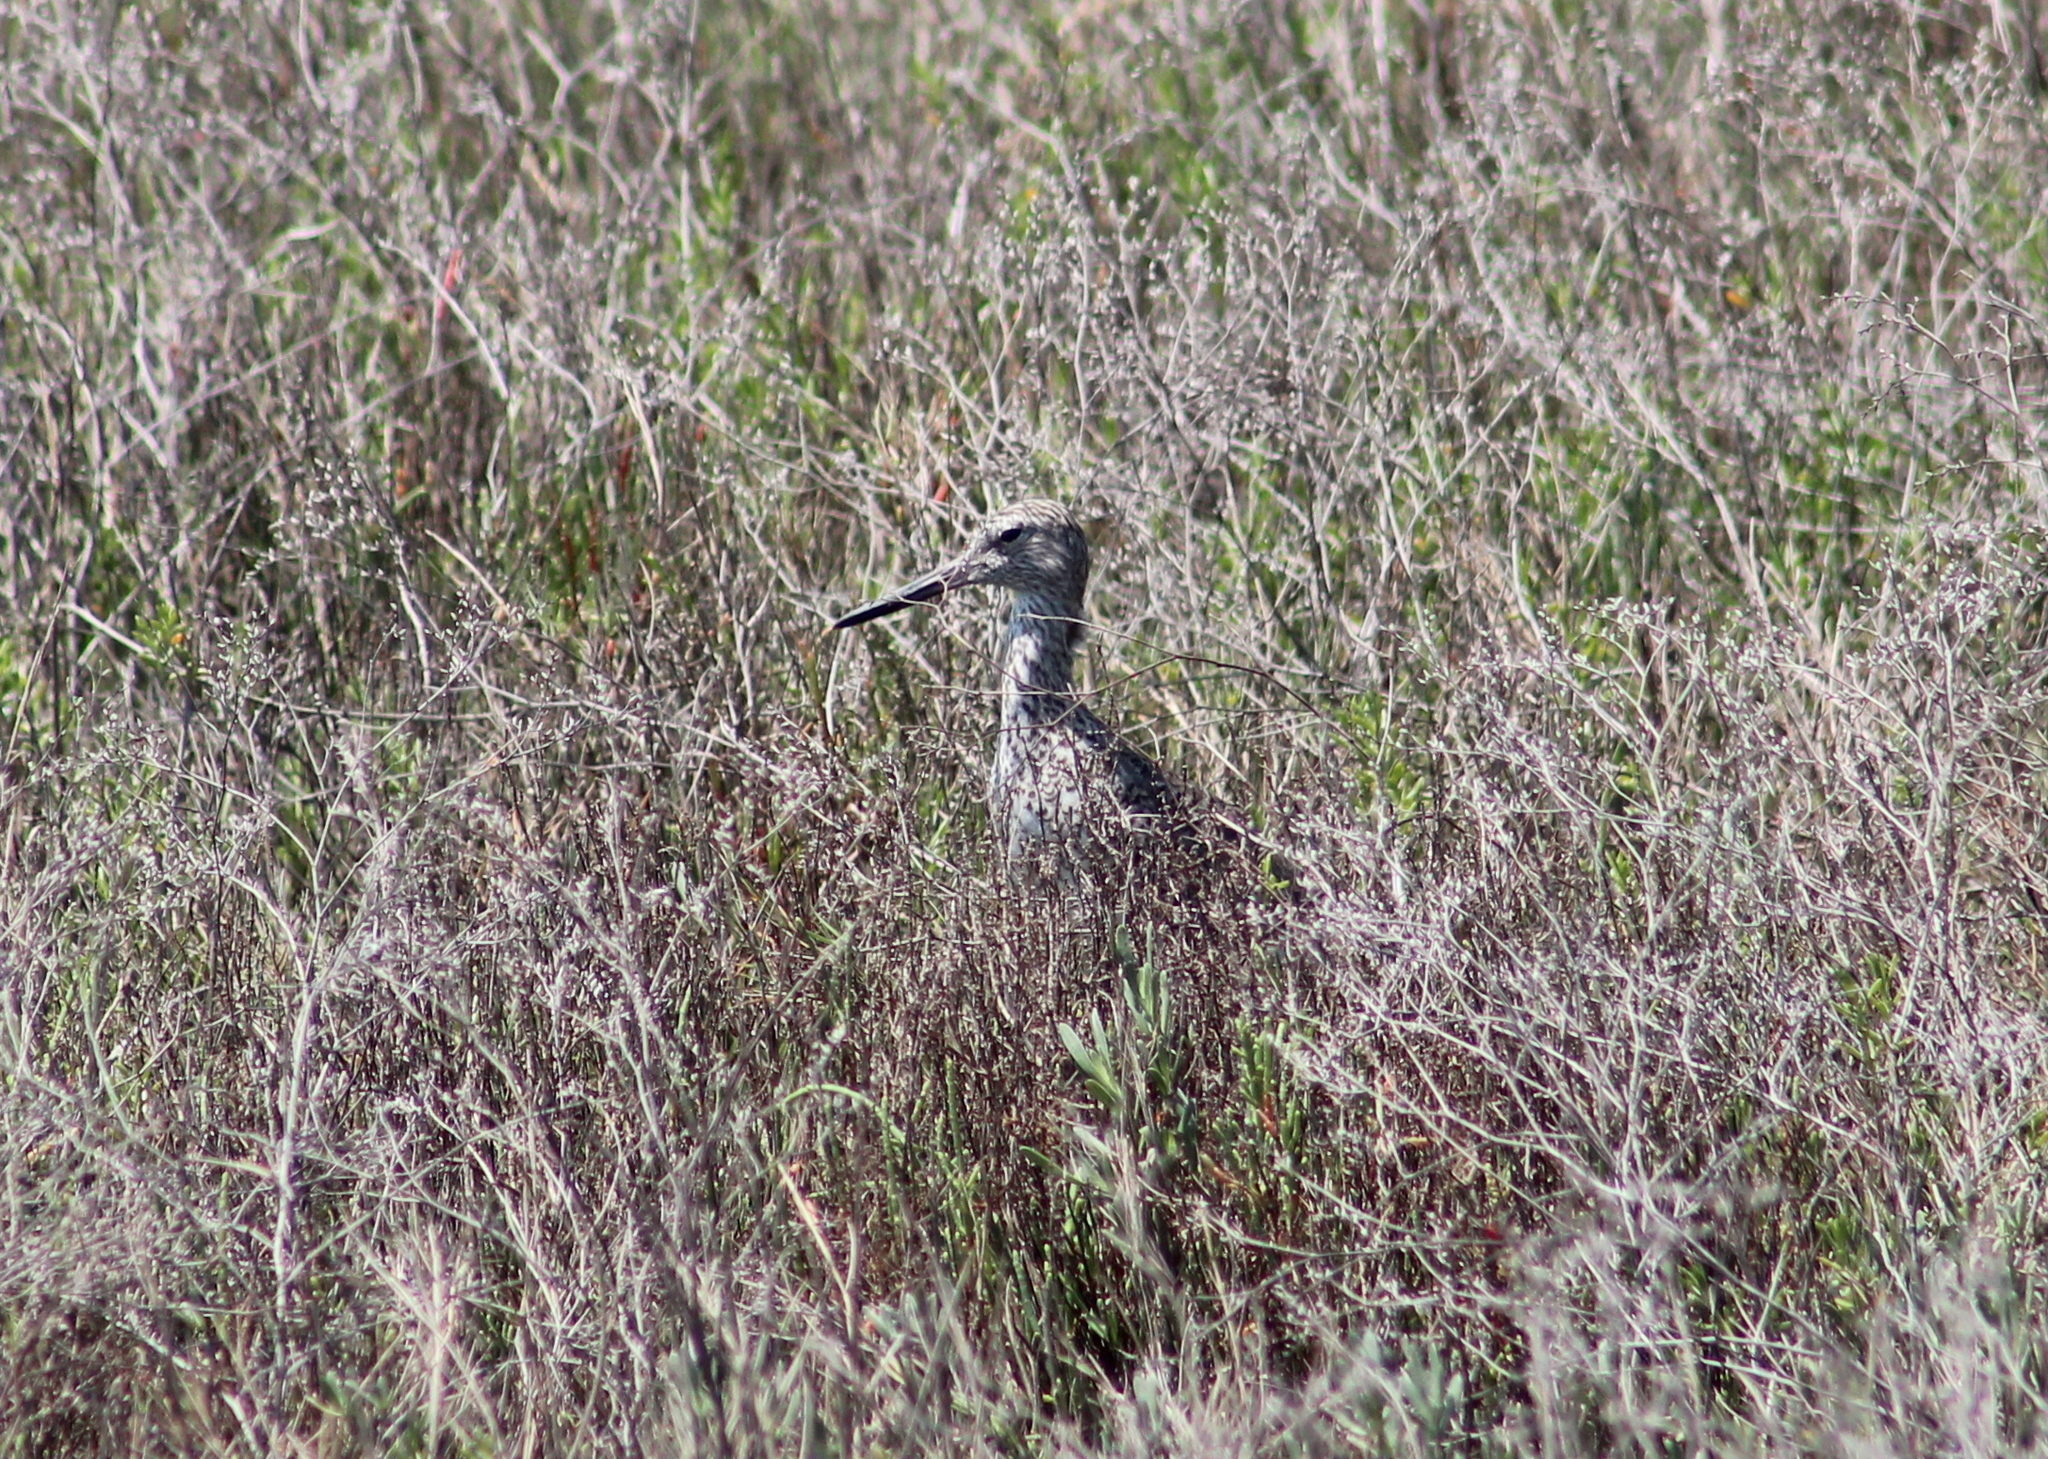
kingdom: Animalia
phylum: Chordata
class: Aves
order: Charadriiformes
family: Scolopacidae
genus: Tringa
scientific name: Tringa semipalmata
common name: Willet
